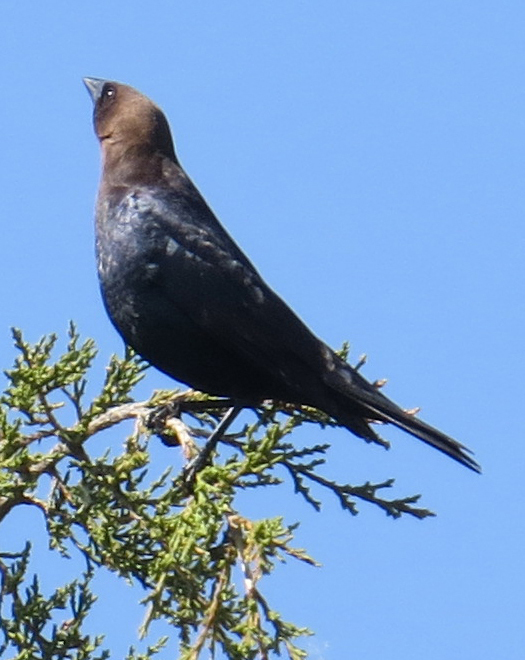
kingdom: Animalia
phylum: Chordata
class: Aves
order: Passeriformes
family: Icteridae
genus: Molothrus
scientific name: Molothrus ater
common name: Brown-headed cowbird
